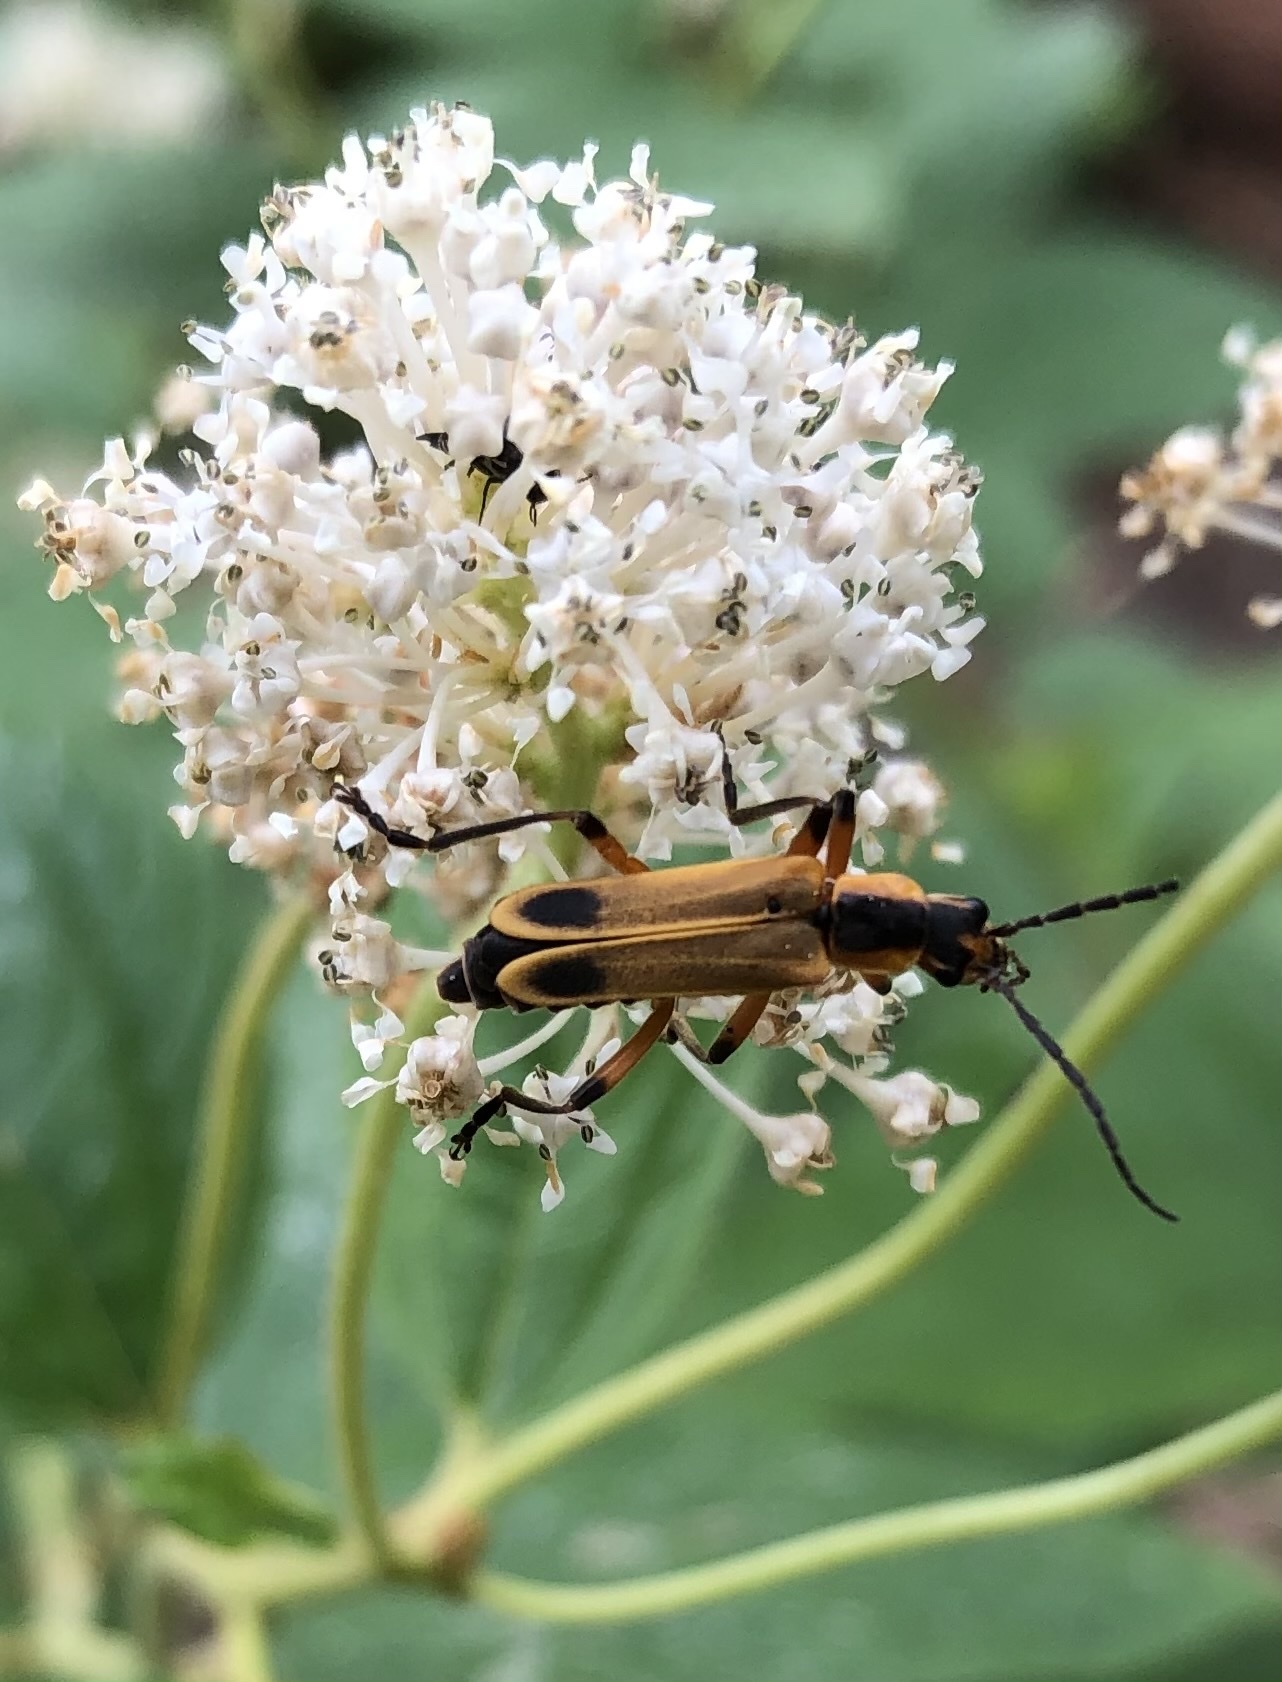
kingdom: Animalia
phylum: Arthropoda
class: Insecta
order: Coleoptera
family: Cantharidae
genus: Chauliognathus
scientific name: Chauliognathus marginatus
